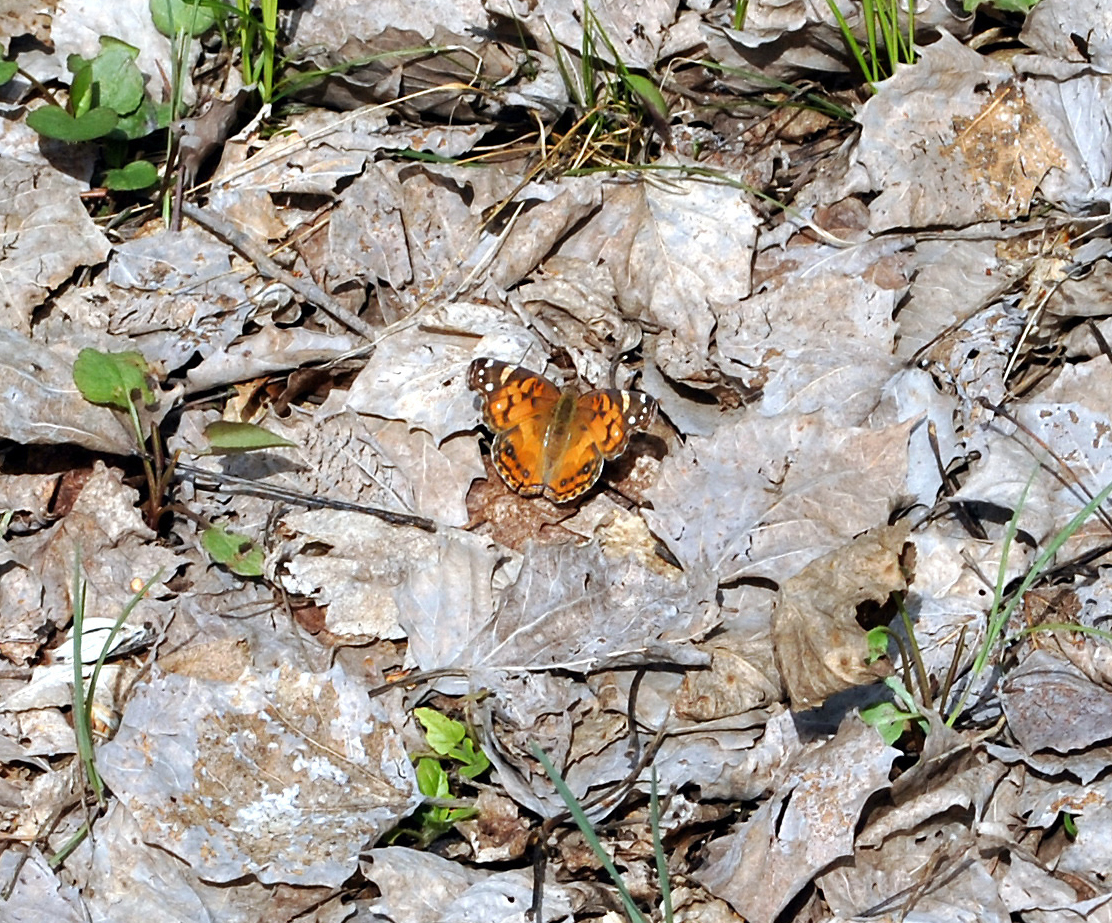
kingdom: Animalia
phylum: Arthropoda
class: Insecta
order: Lepidoptera
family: Nymphalidae
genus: Vanessa
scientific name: Vanessa virginiensis
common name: American lady
